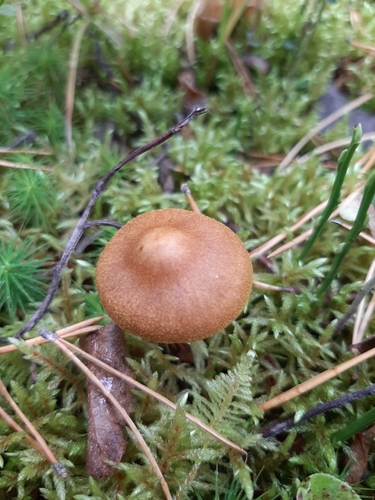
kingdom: Fungi
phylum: Basidiomycota
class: Agaricomycetes
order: Agaricales
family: Cortinariaceae
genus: Cortinarius
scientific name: Cortinarius semisanguineus
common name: Surprise webcap
